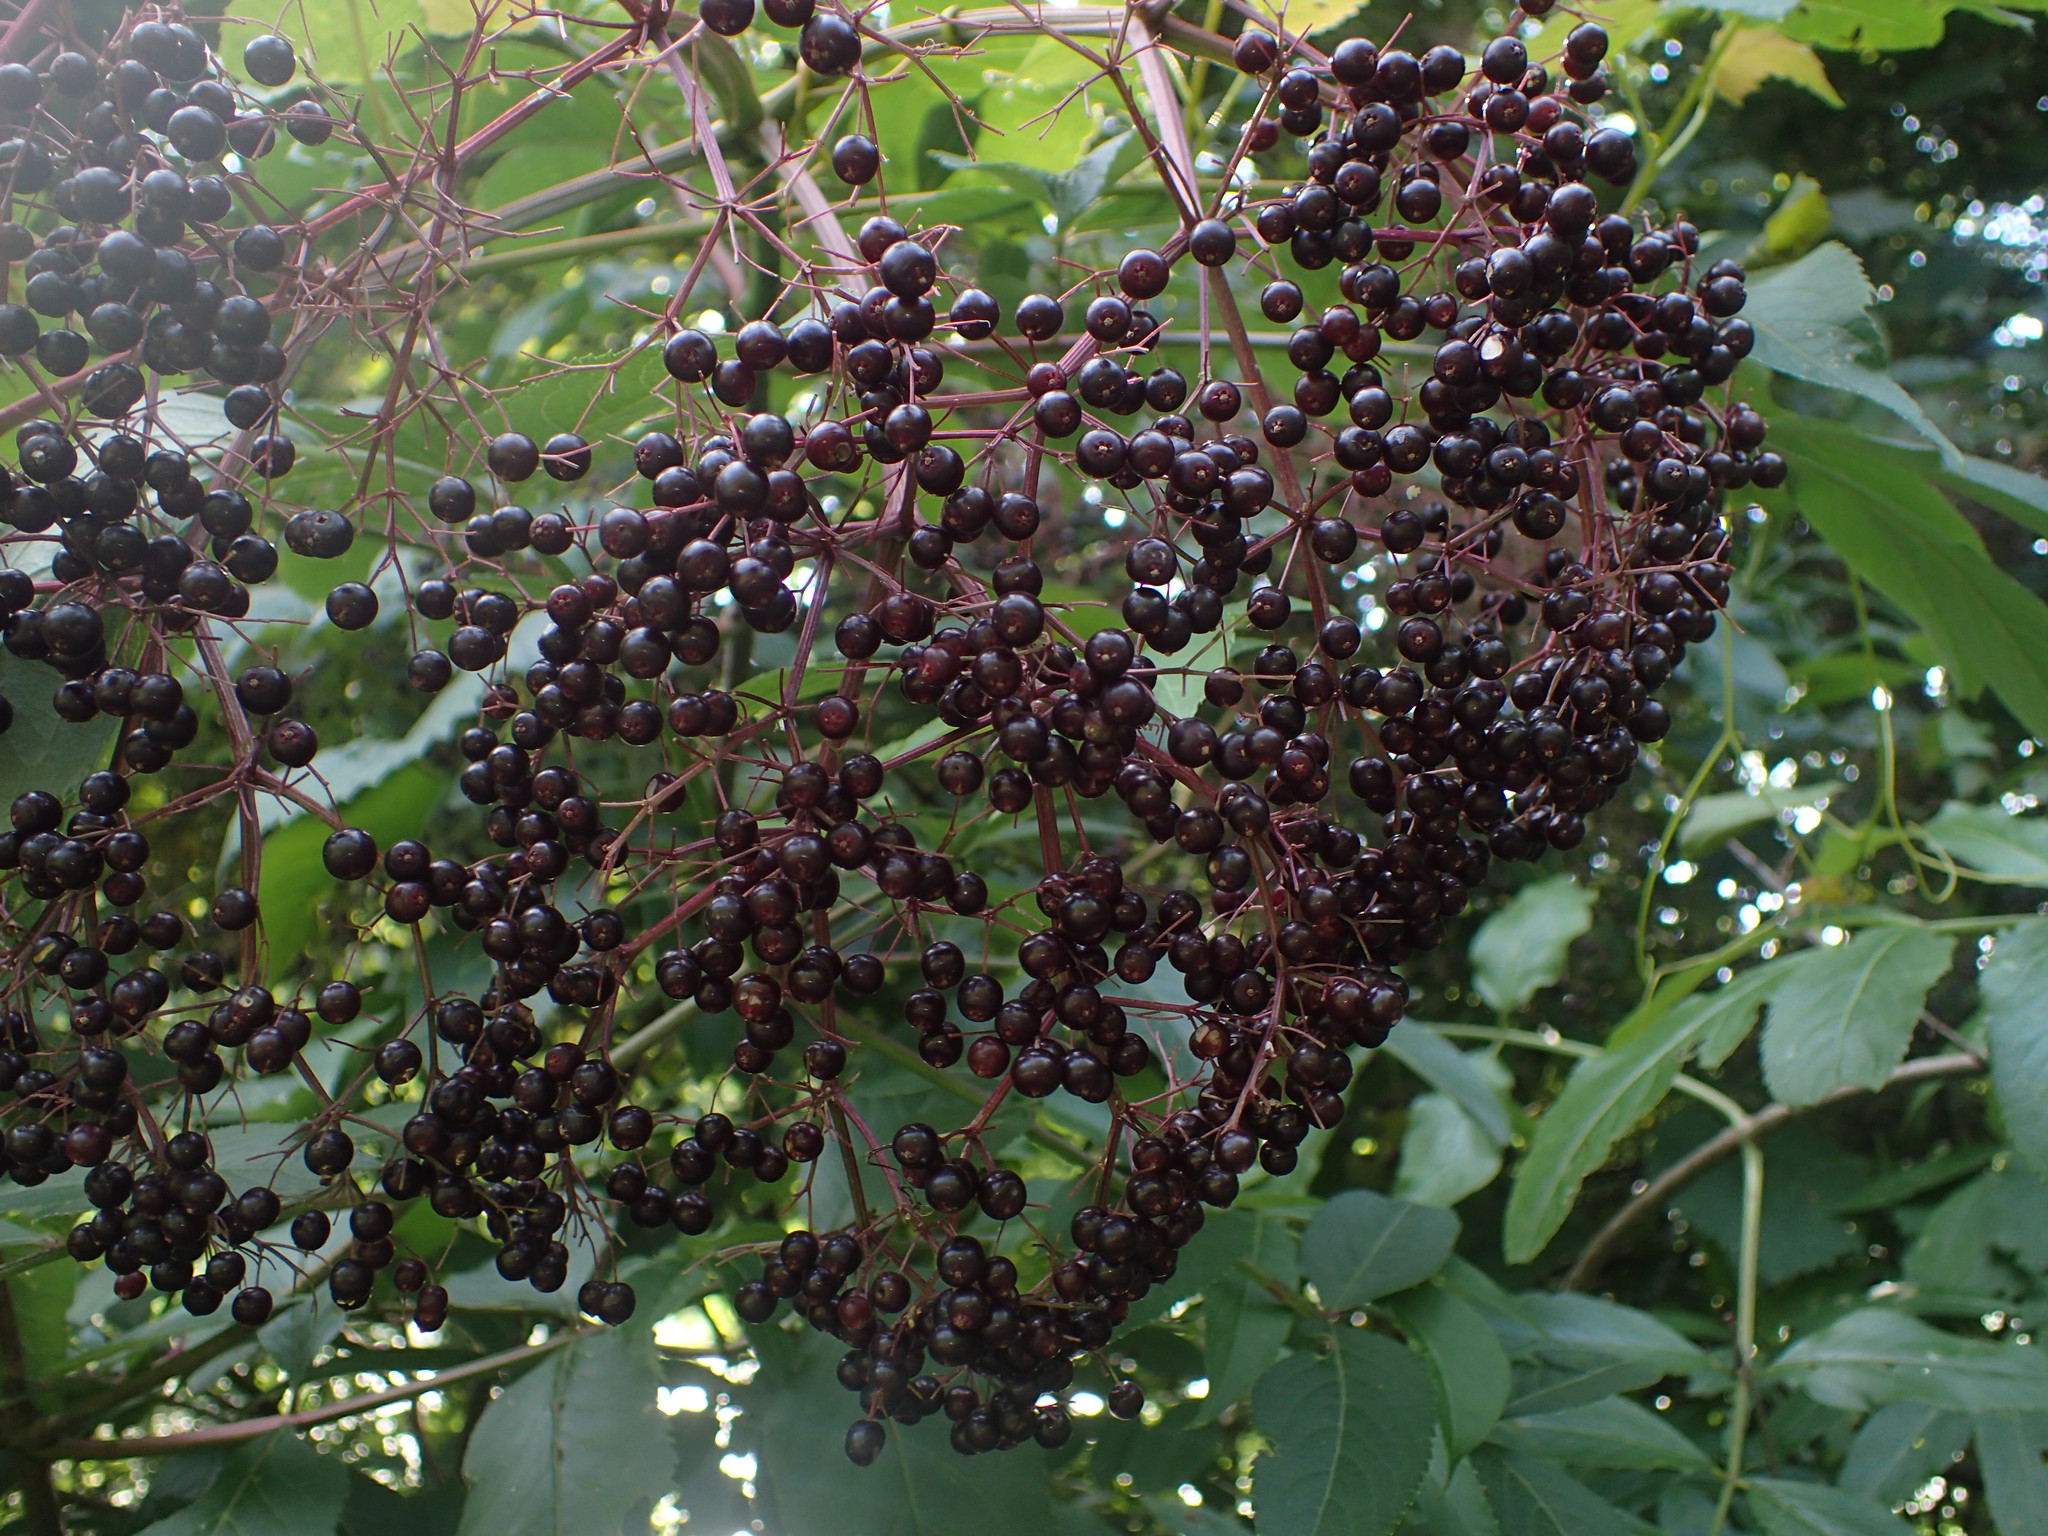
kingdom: Plantae
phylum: Tracheophyta
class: Magnoliopsida
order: Dipsacales
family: Viburnaceae
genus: Sambucus
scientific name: Sambucus canadensis
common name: American elder
